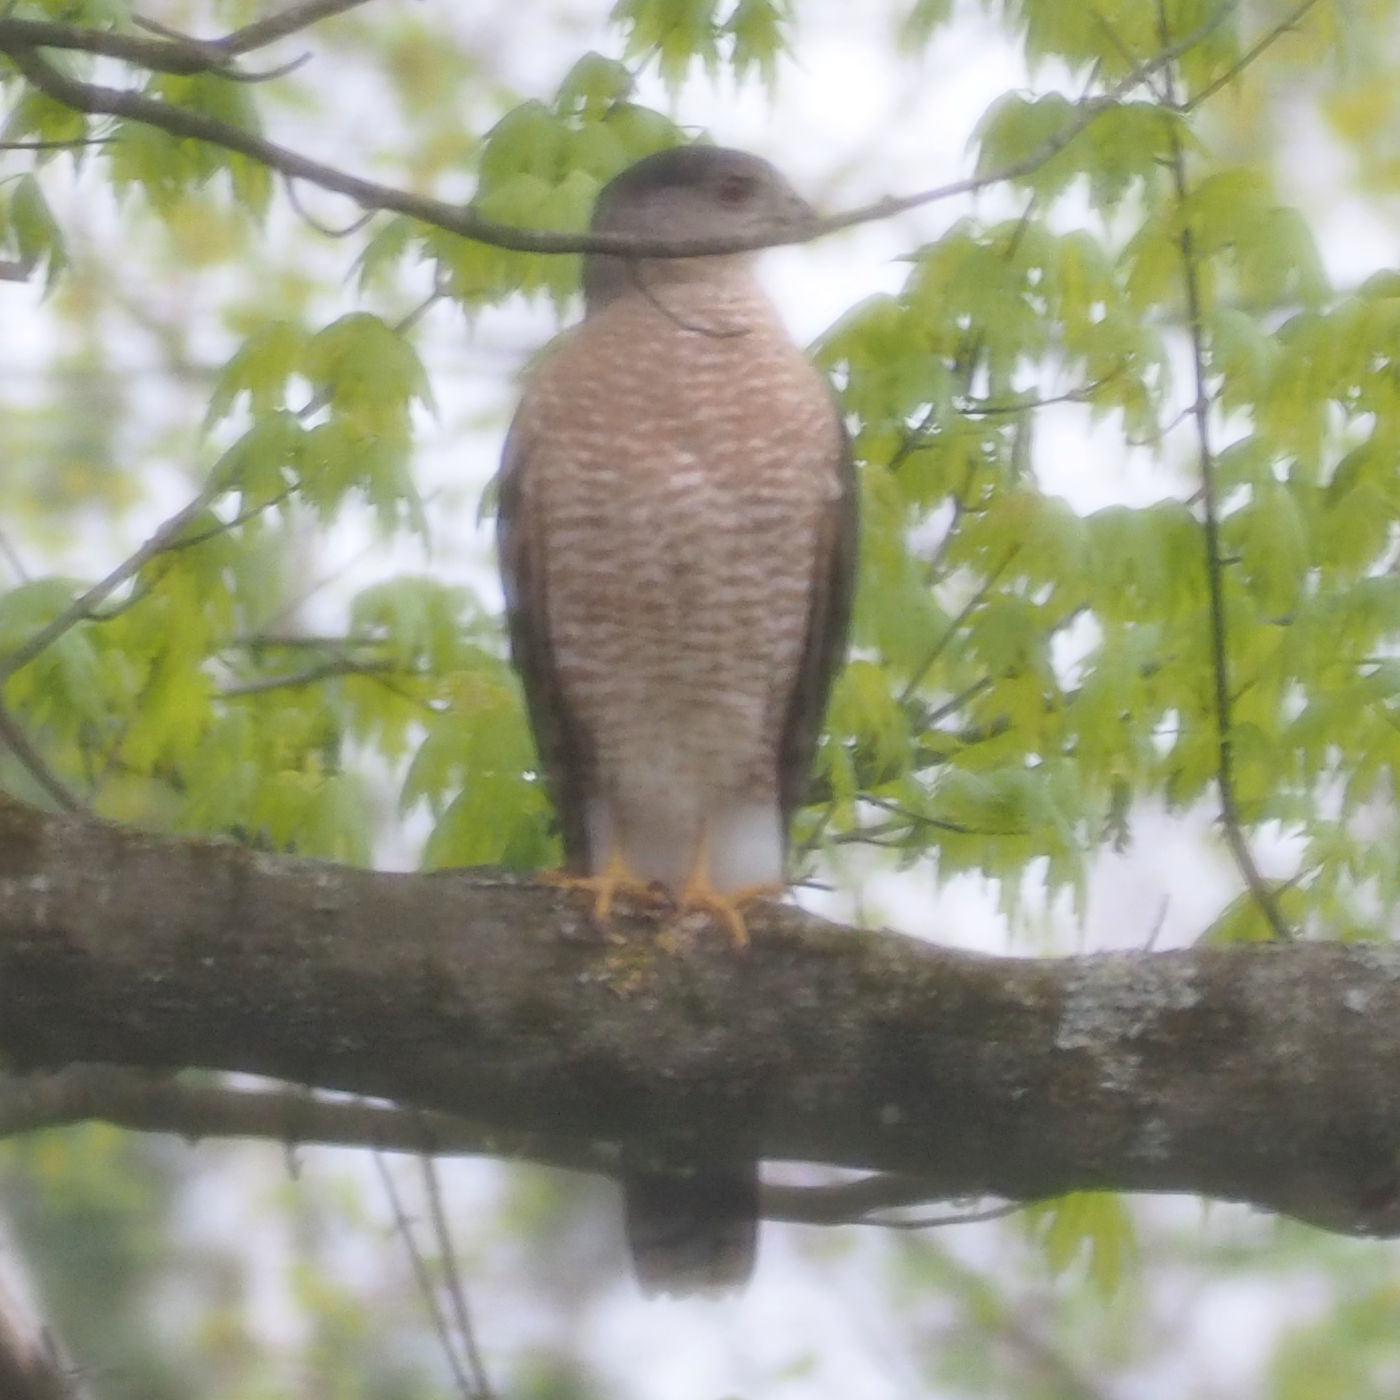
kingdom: Animalia
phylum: Chordata
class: Aves
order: Accipitriformes
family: Accipitridae
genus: Accipiter
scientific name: Accipiter cooperii
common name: Cooper's hawk
